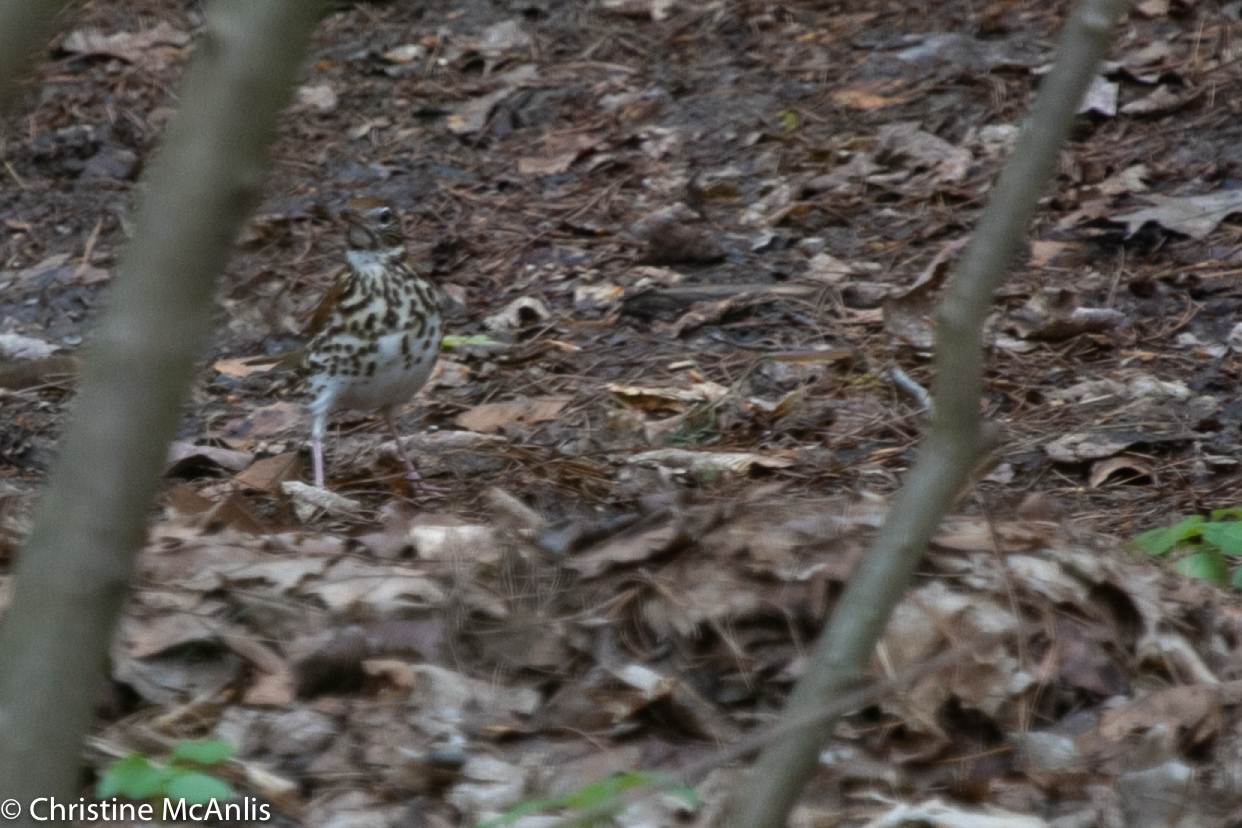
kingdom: Animalia
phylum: Chordata
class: Aves
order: Passeriformes
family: Turdidae
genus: Hylocichla
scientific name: Hylocichla mustelina
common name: Wood thrush
